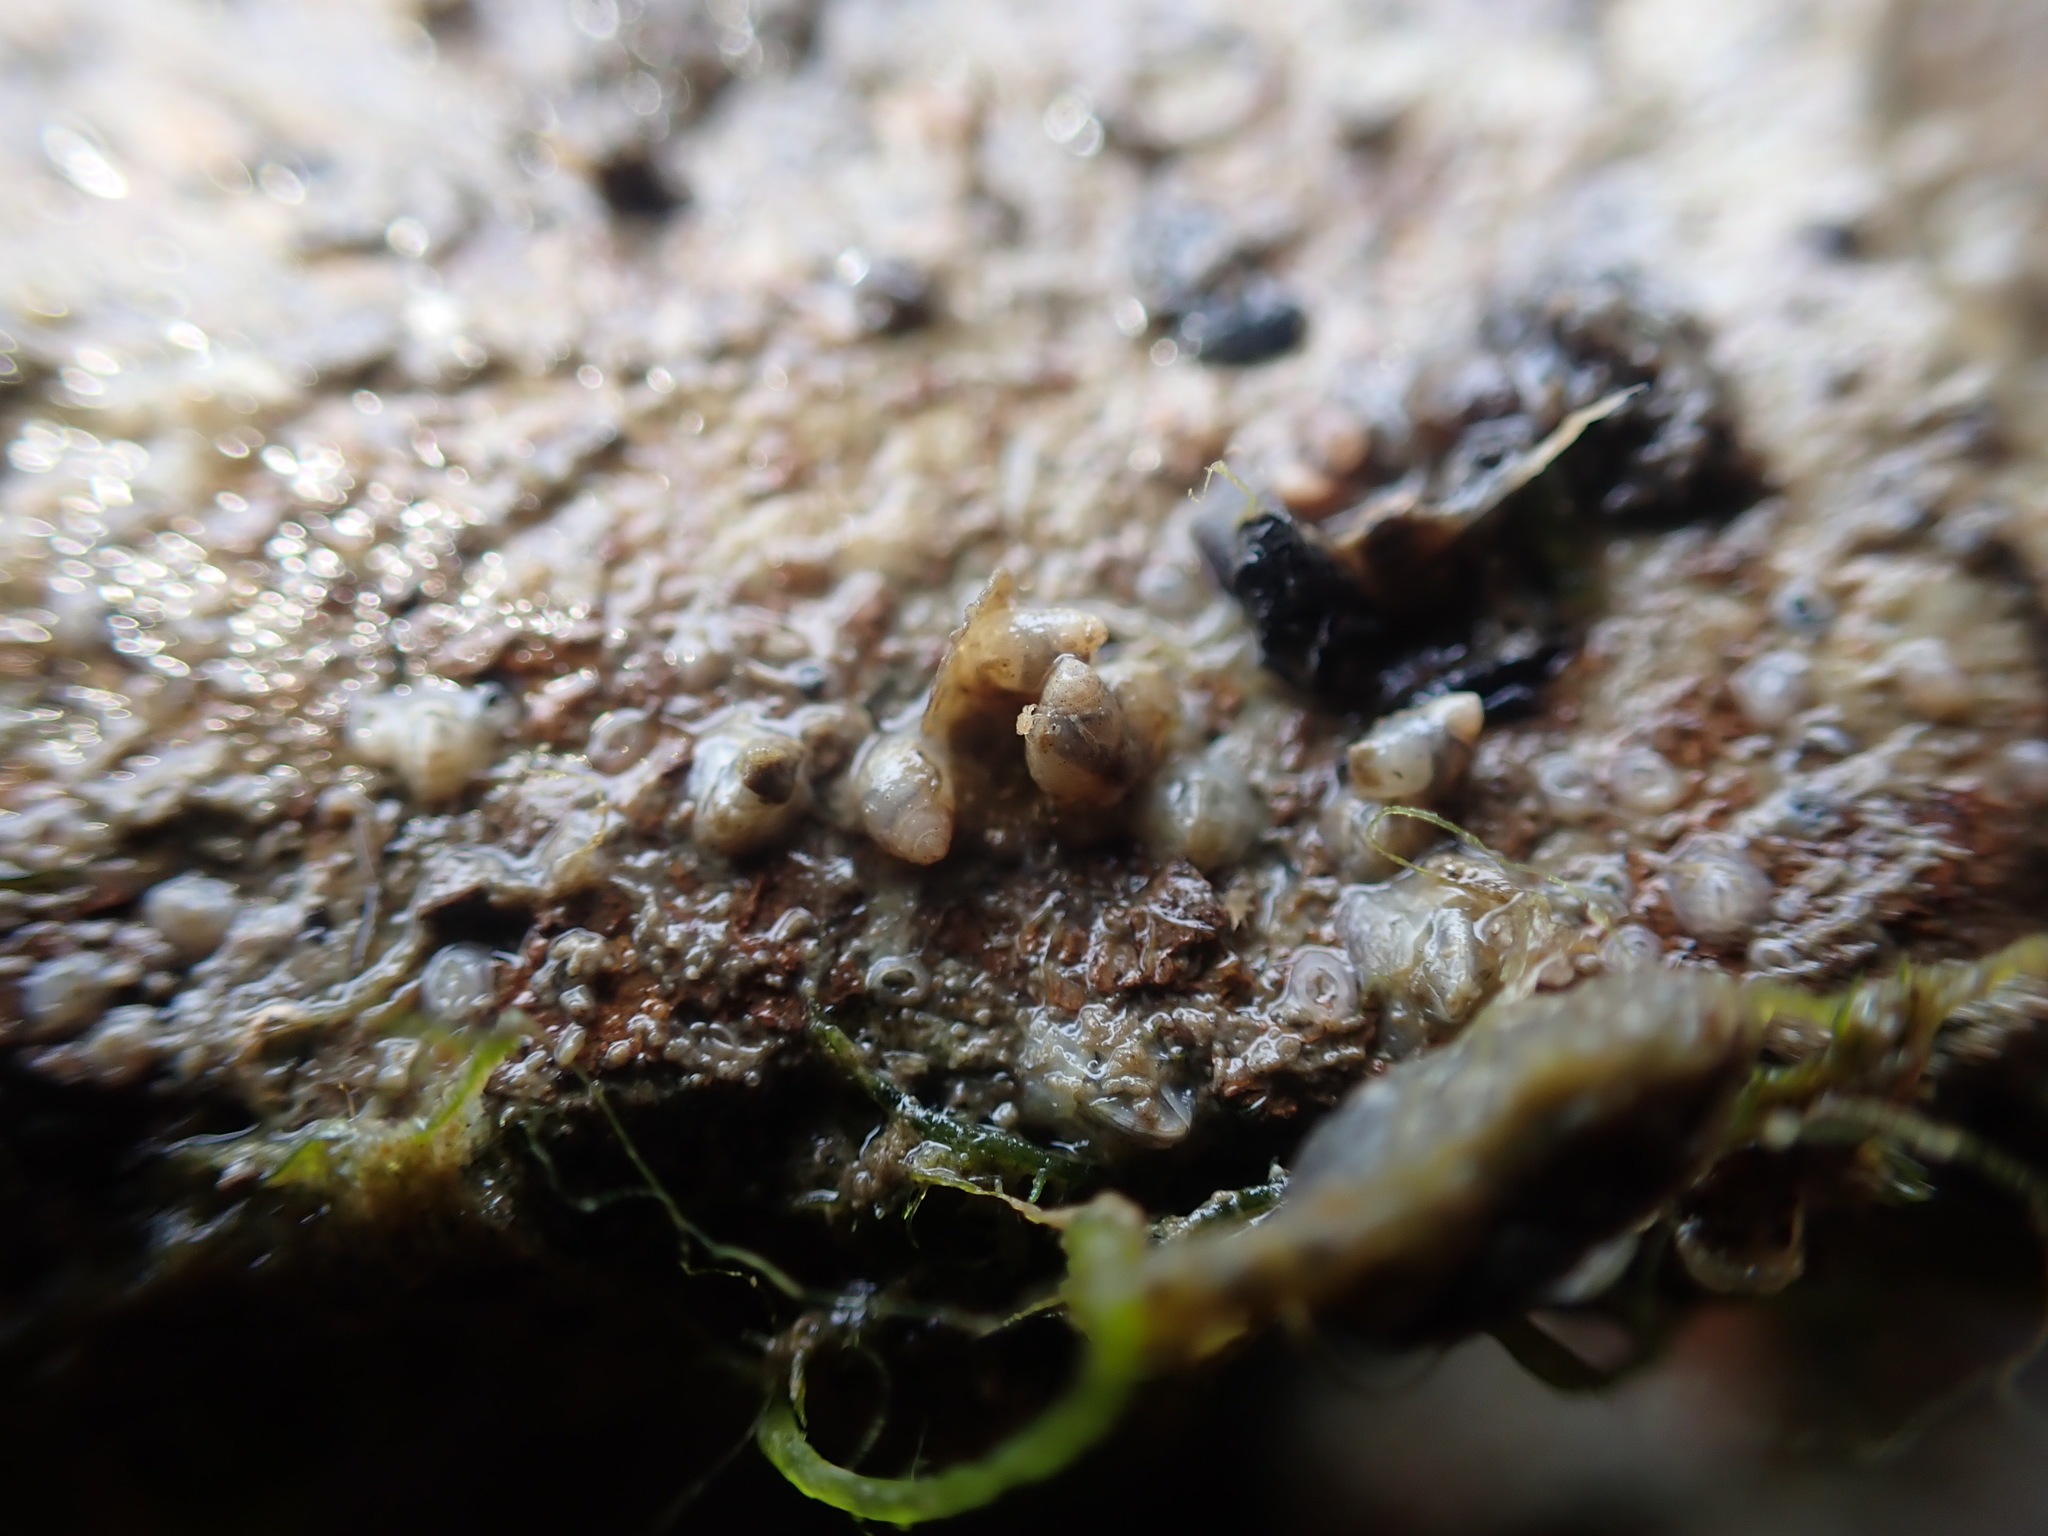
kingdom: Animalia
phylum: Mollusca
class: Gastropoda
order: Ellobiida
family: Ellobiidae
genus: Leuconopsis
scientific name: Leuconopsis obsoleta
